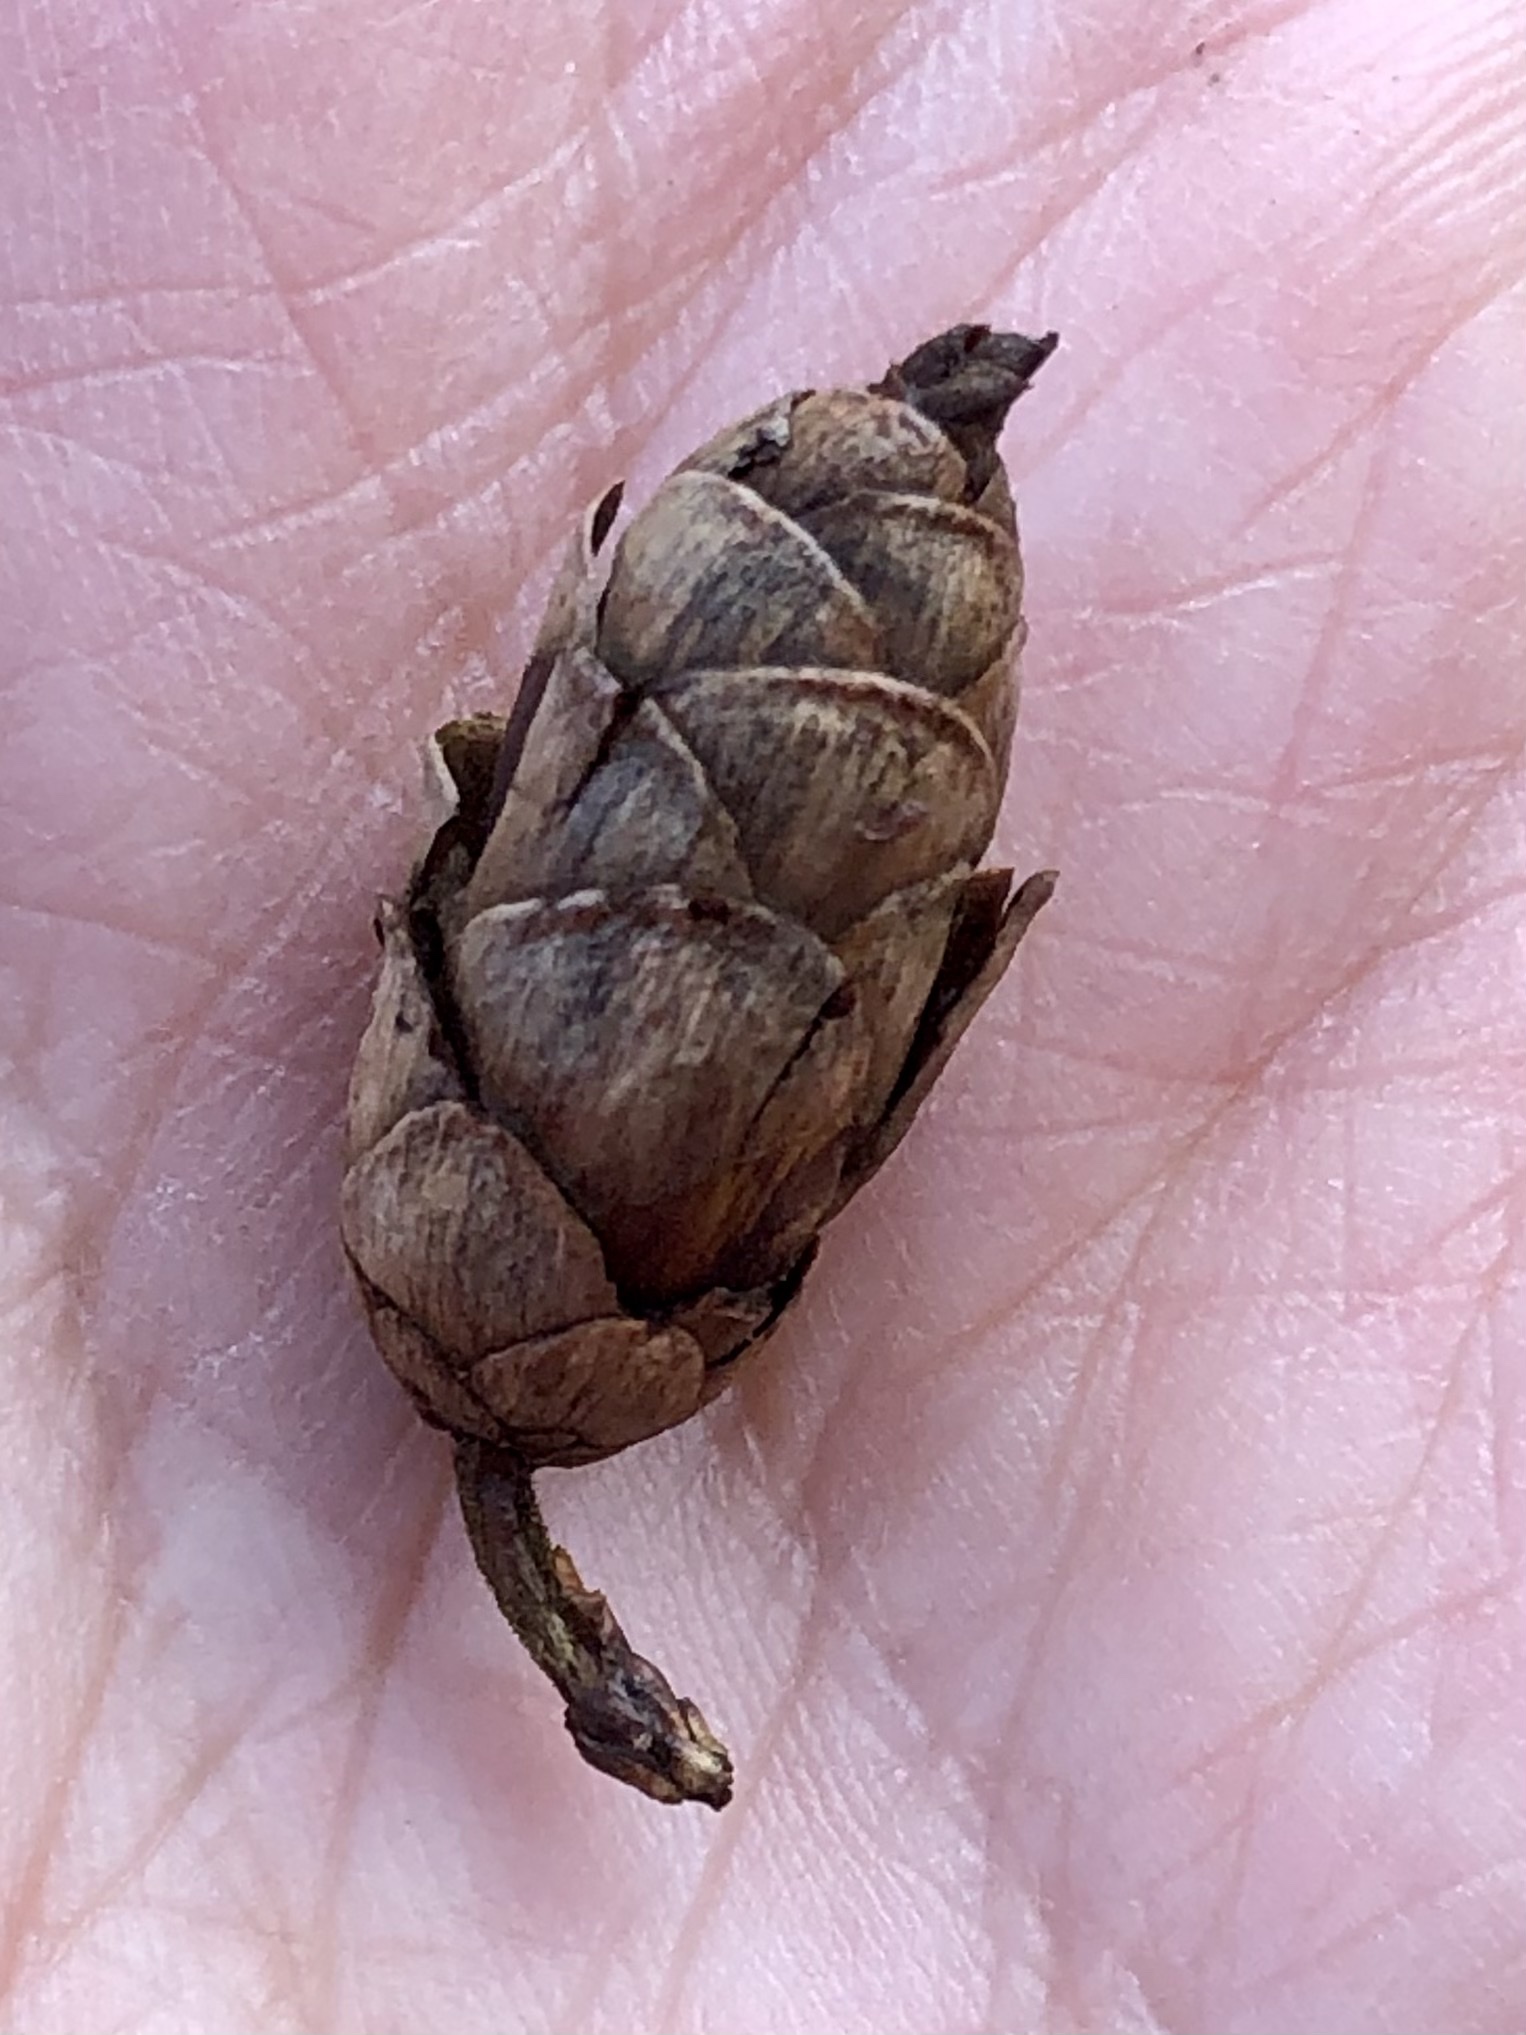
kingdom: Plantae
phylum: Tracheophyta
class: Pinopsida
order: Pinales
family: Pinaceae
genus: Tsuga
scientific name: Tsuga canadensis
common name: Eastern hemlock
